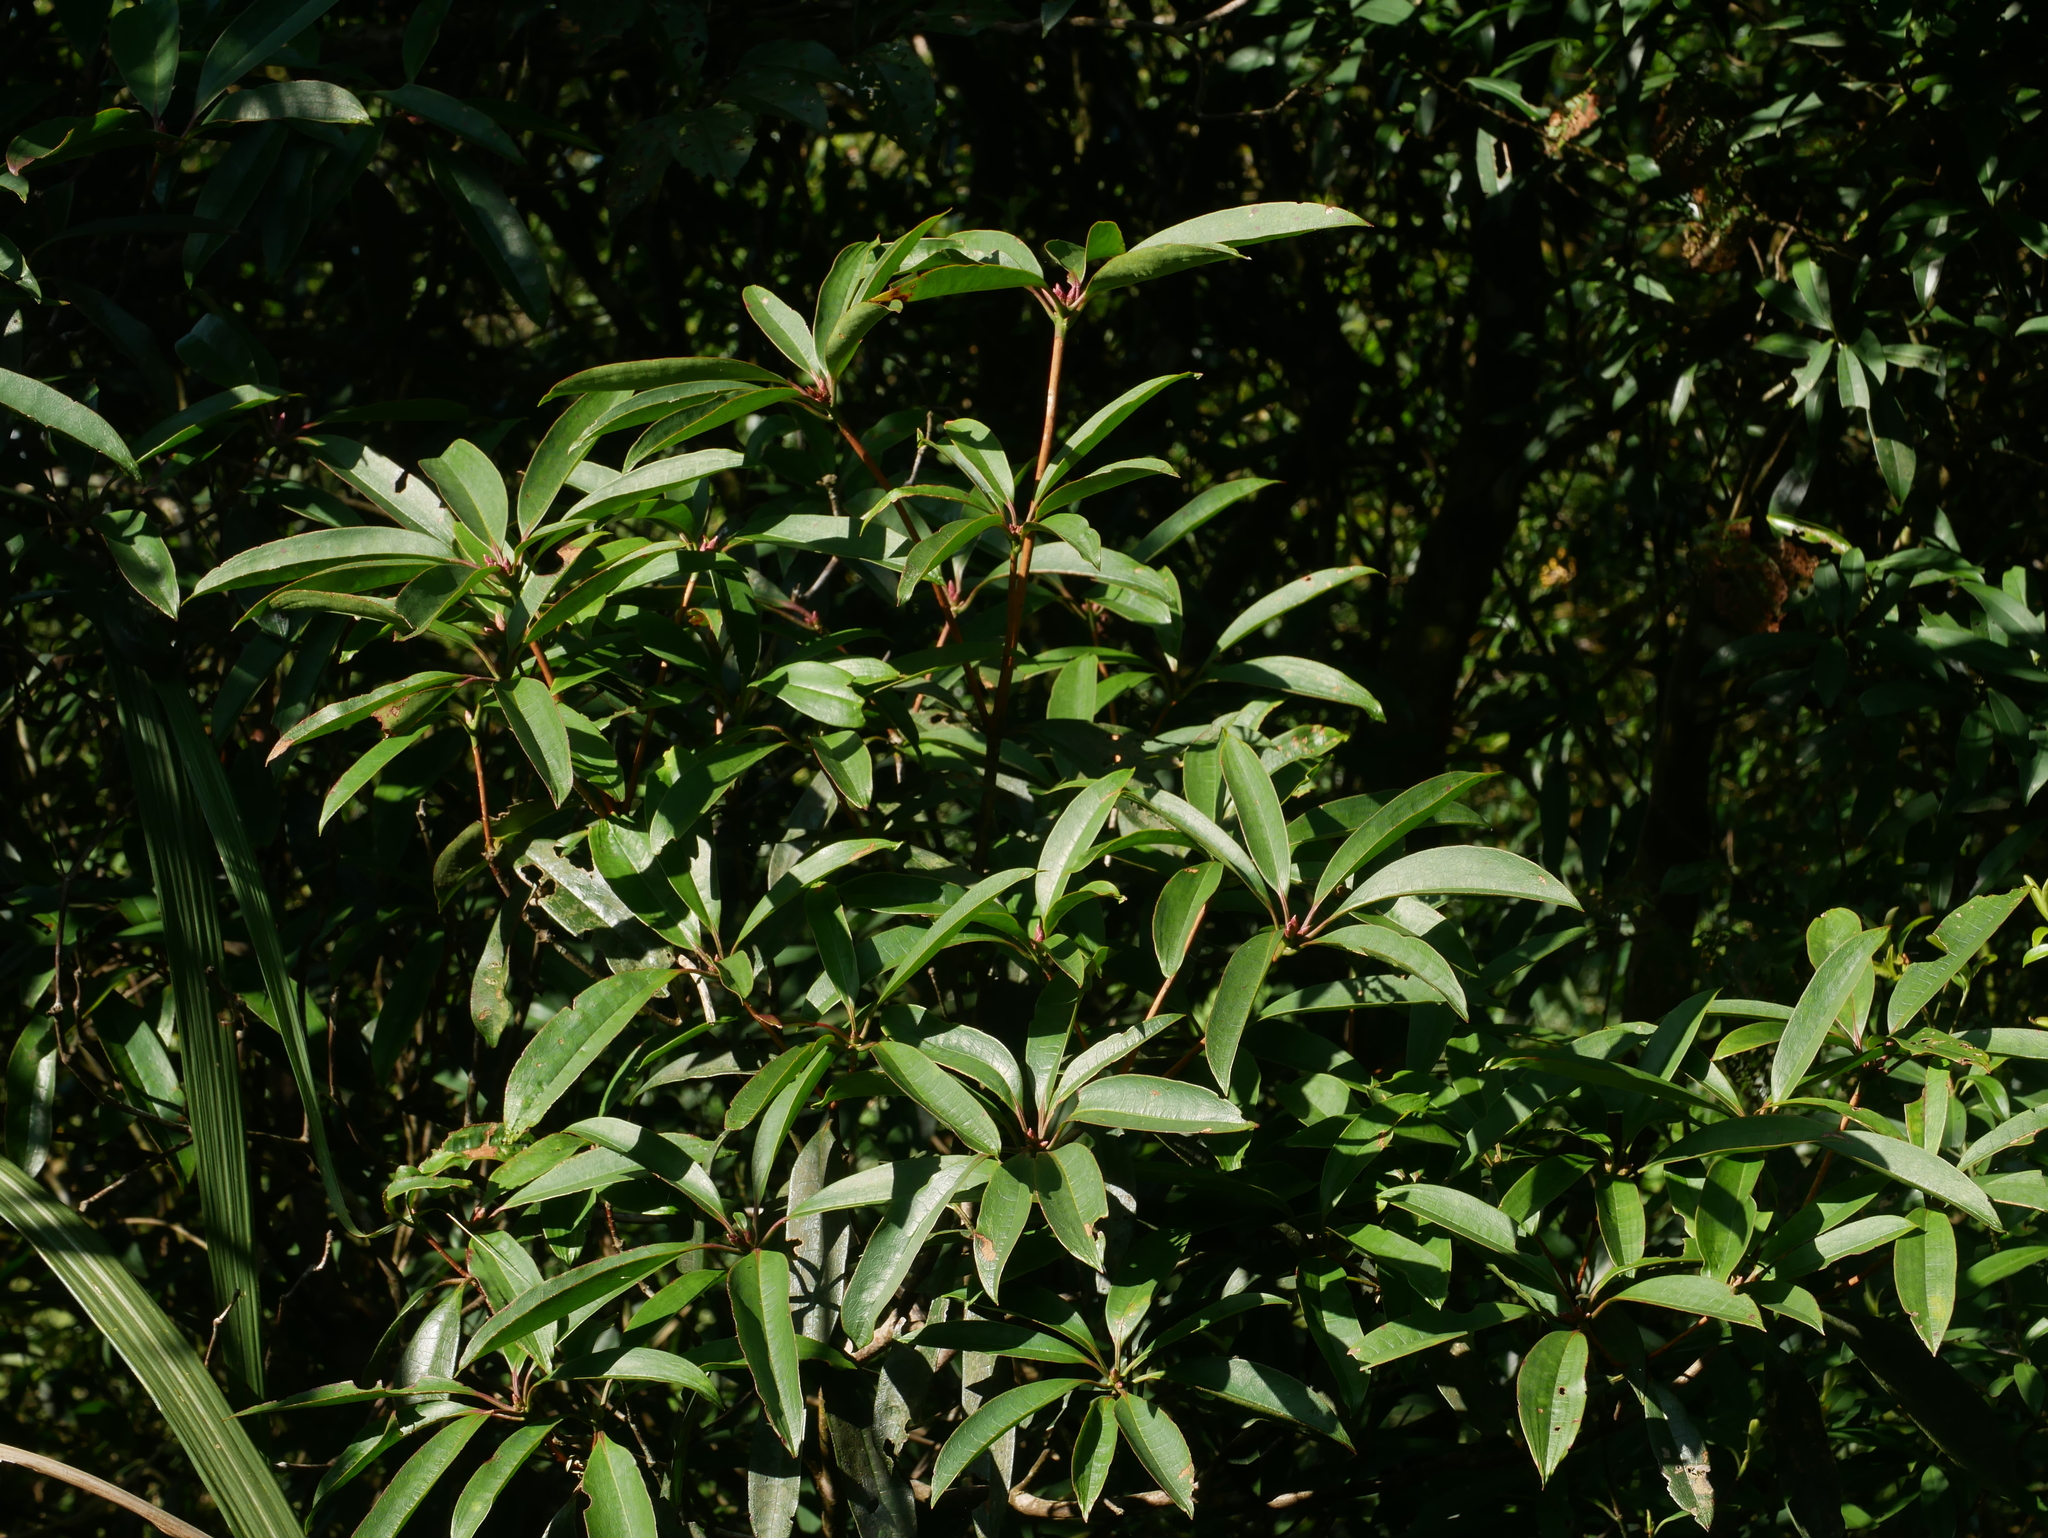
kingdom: Plantae
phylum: Tracheophyta
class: Magnoliopsida
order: Ericales
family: Ericaceae
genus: Rhododendron
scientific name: Rhododendron latoucheae
